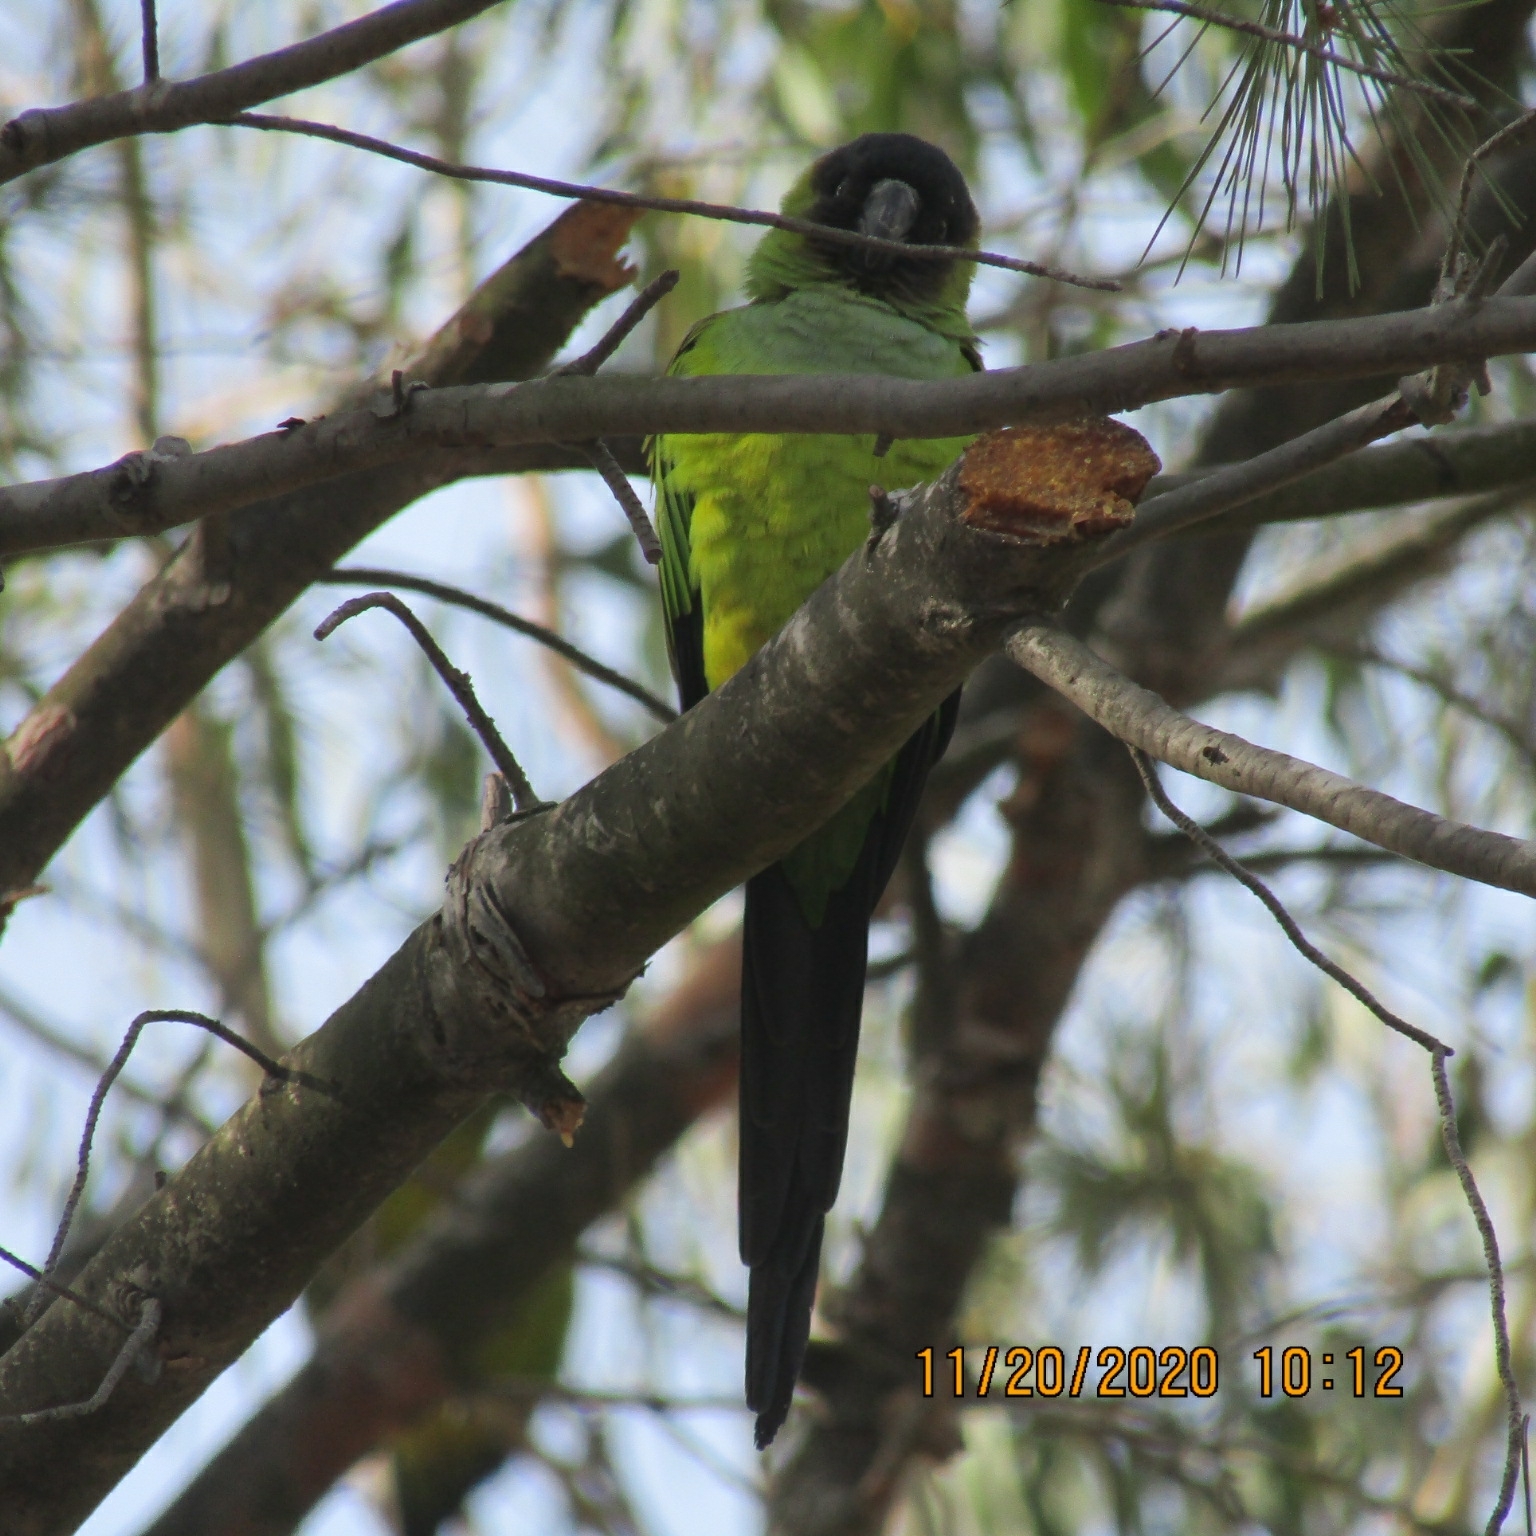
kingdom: Animalia
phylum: Chordata
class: Aves
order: Psittaciformes
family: Psittacidae
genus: Nandayus
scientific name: Nandayus nenday
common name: Nanday parakeet
